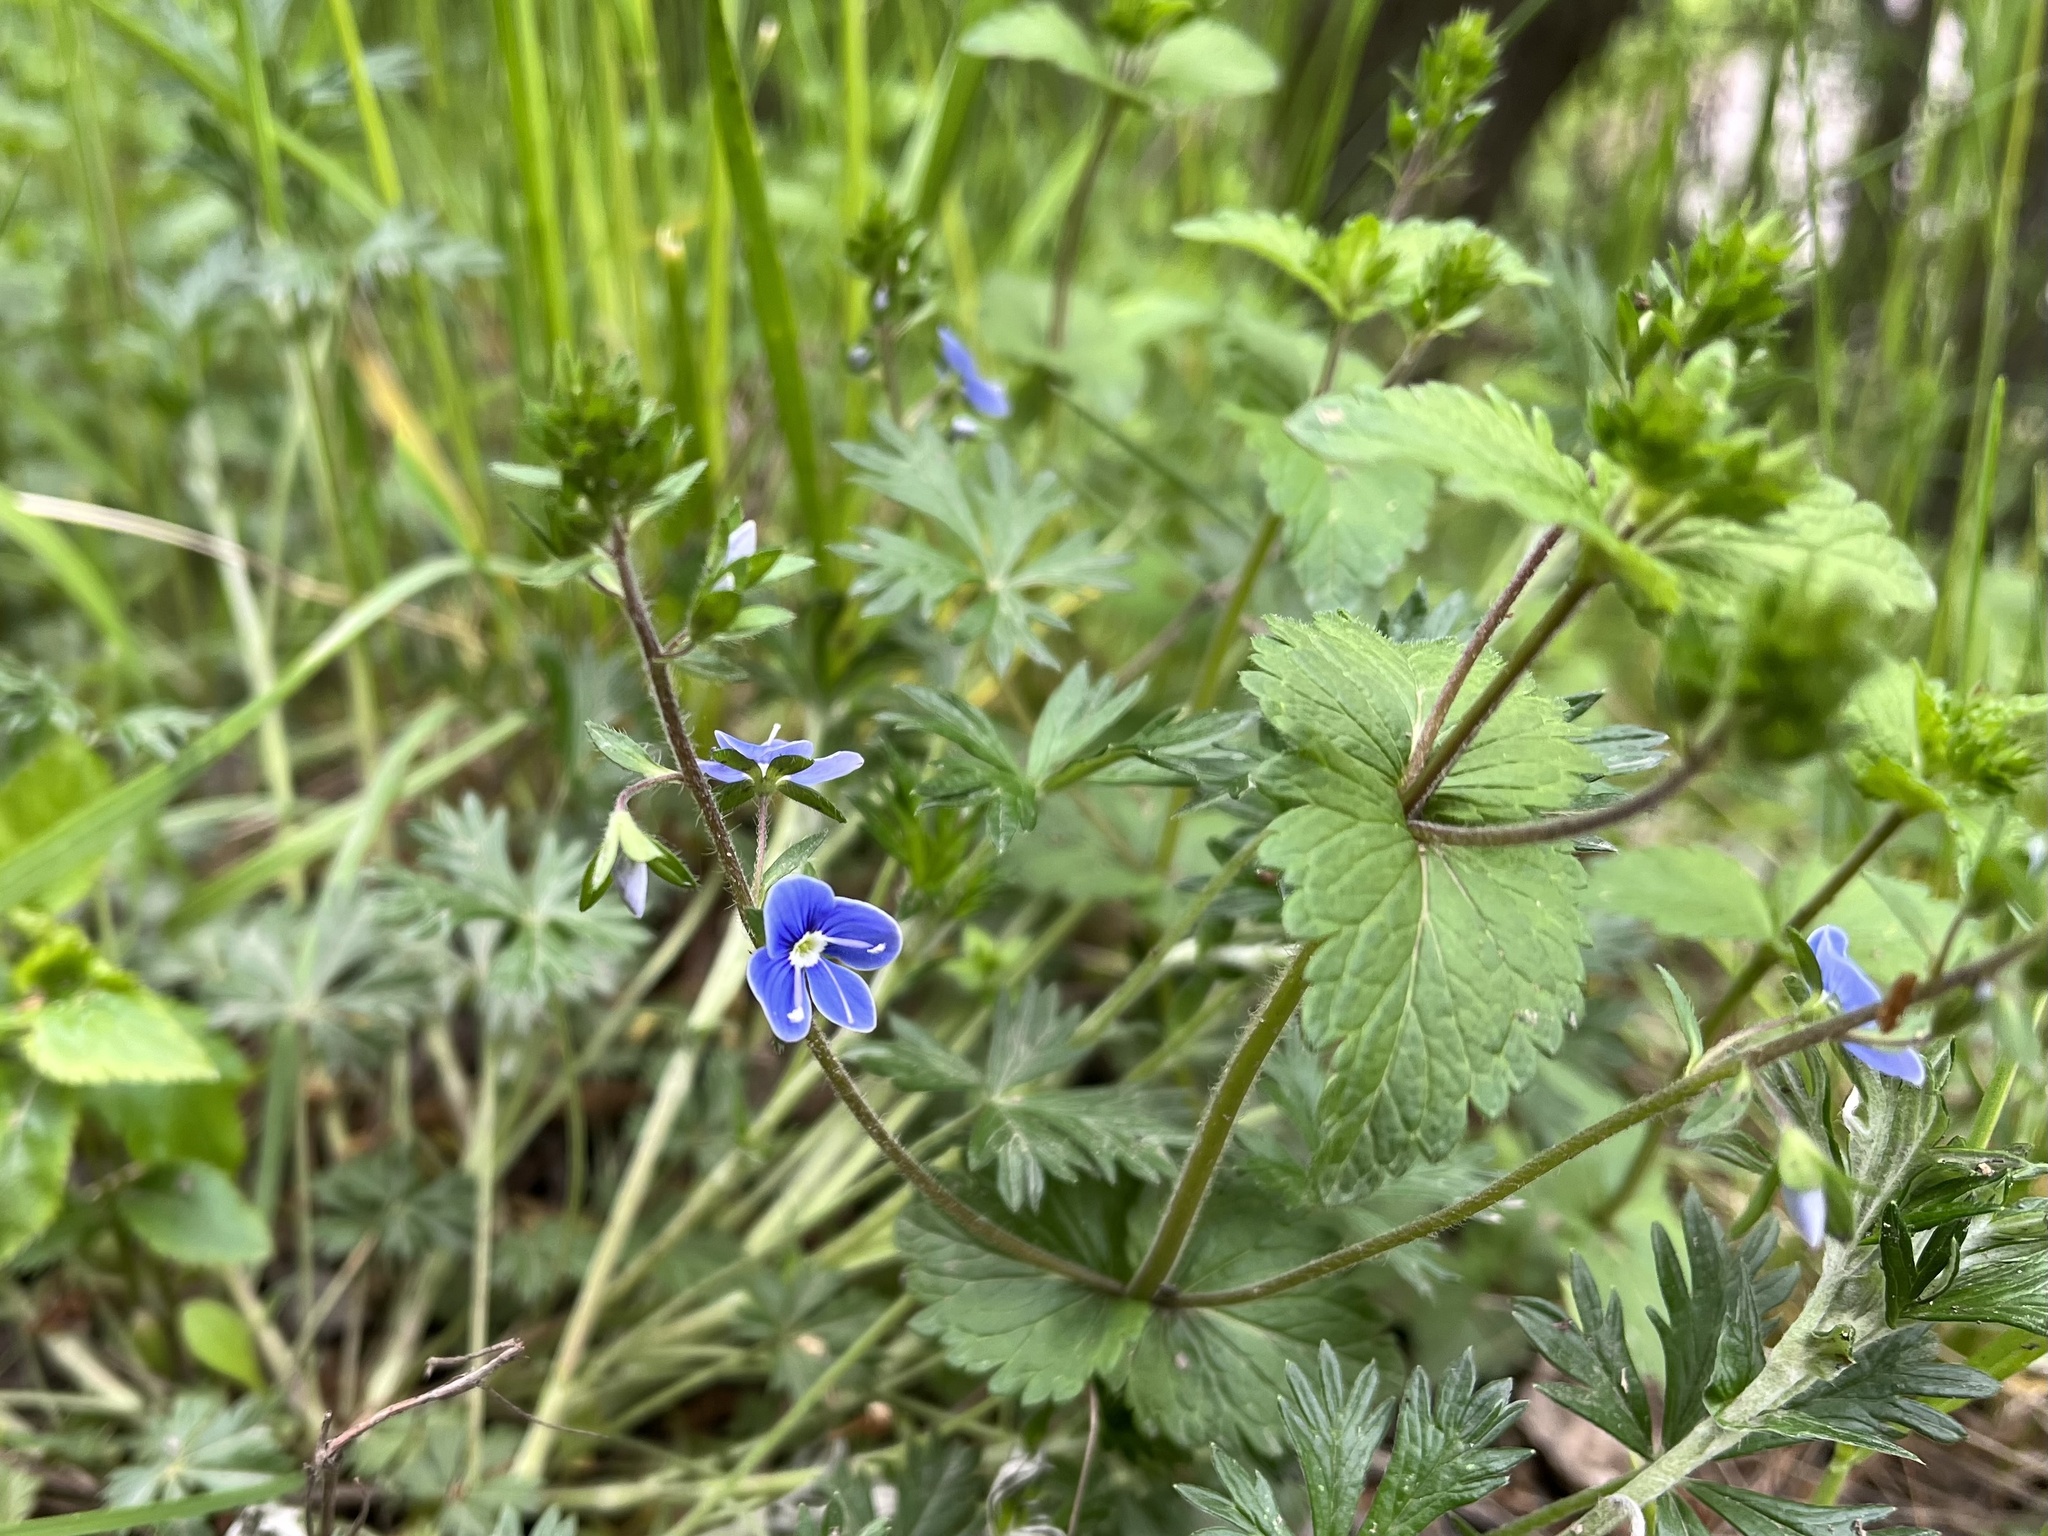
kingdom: Plantae
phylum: Tracheophyta
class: Magnoliopsida
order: Lamiales
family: Plantaginaceae
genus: Veronica
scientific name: Veronica chamaedrys
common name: Germander speedwell
